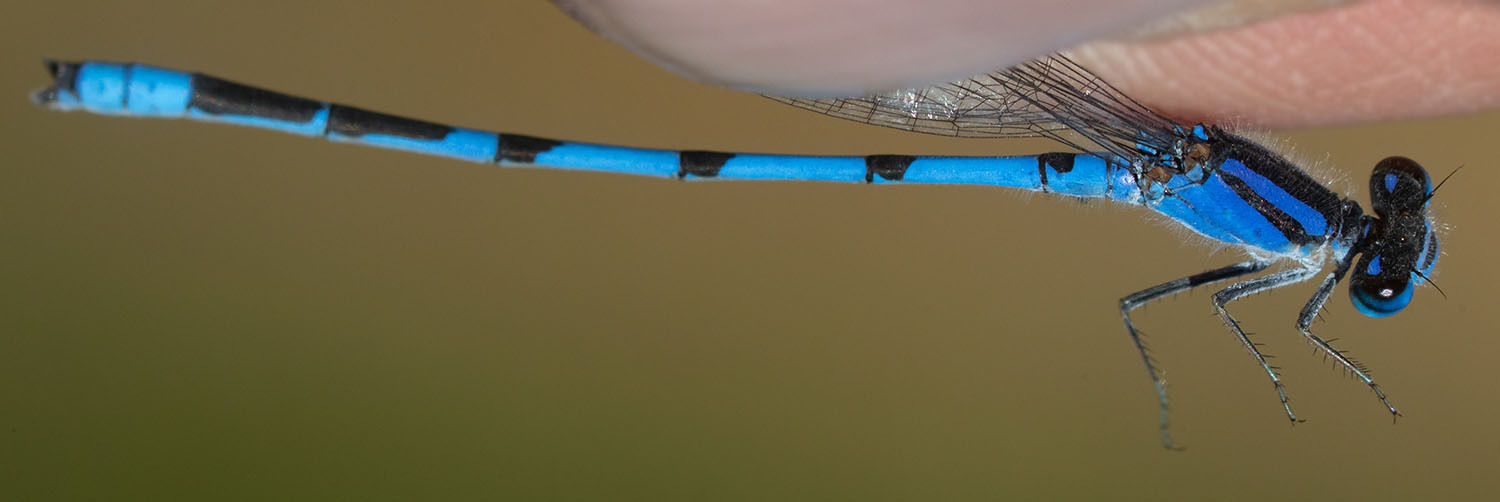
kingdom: Animalia
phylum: Arthropoda
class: Insecta
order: Odonata
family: Coenagrionidae
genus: Enallagma
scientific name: Enallagma civile
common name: Damselfly
